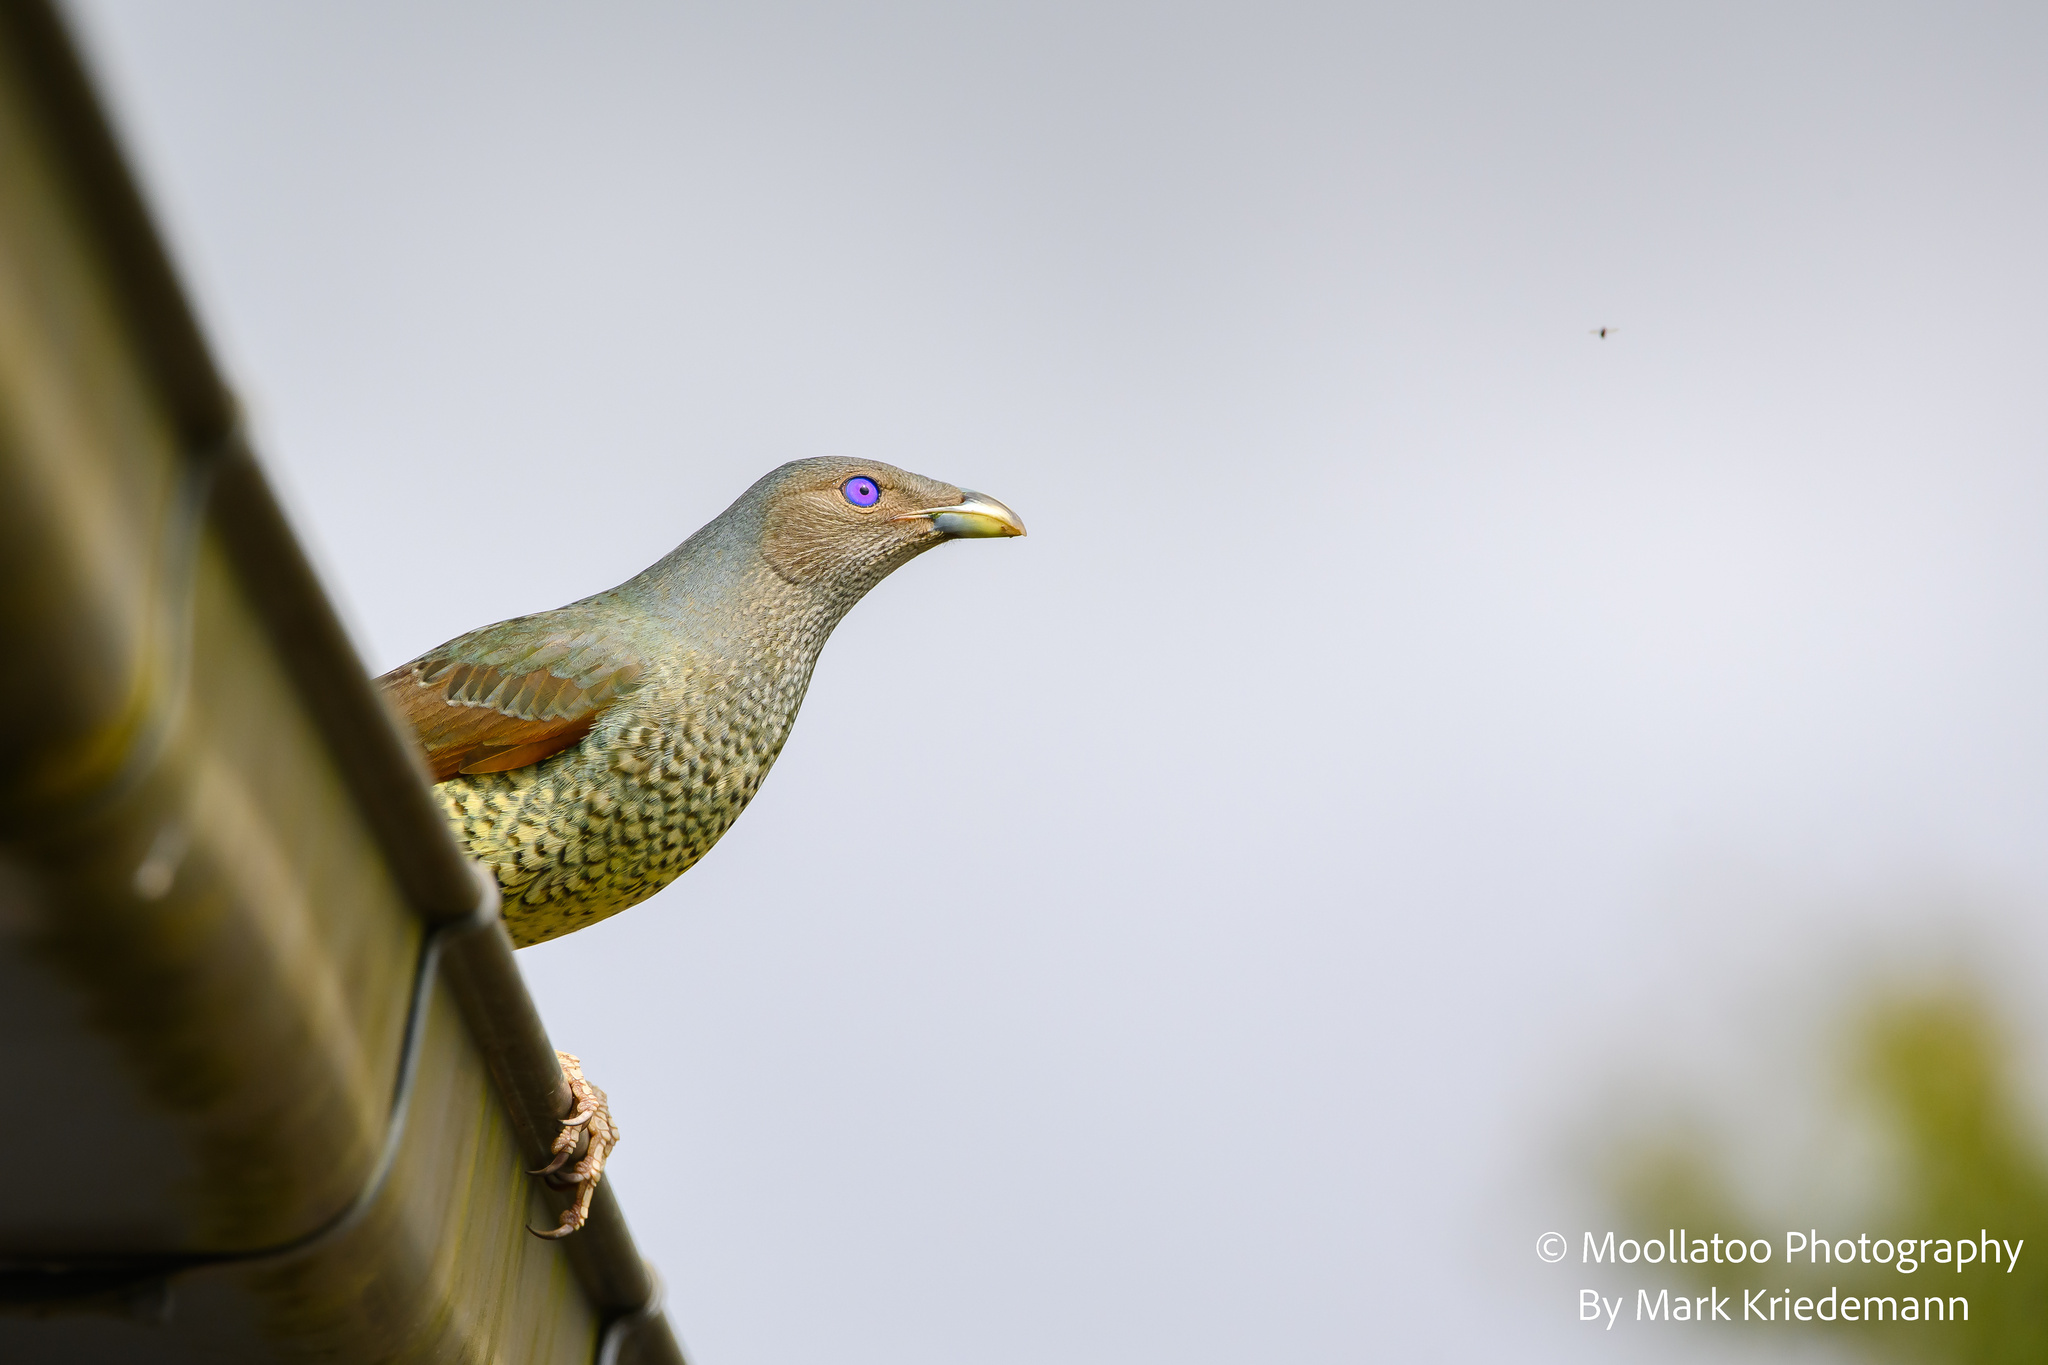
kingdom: Animalia
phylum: Chordata
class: Aves
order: Passeriformes
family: Ptilonorhynchidae
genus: Ptilonorhynchus
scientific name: Ptilonorhynchus violaceus
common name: Satin bowerbird
